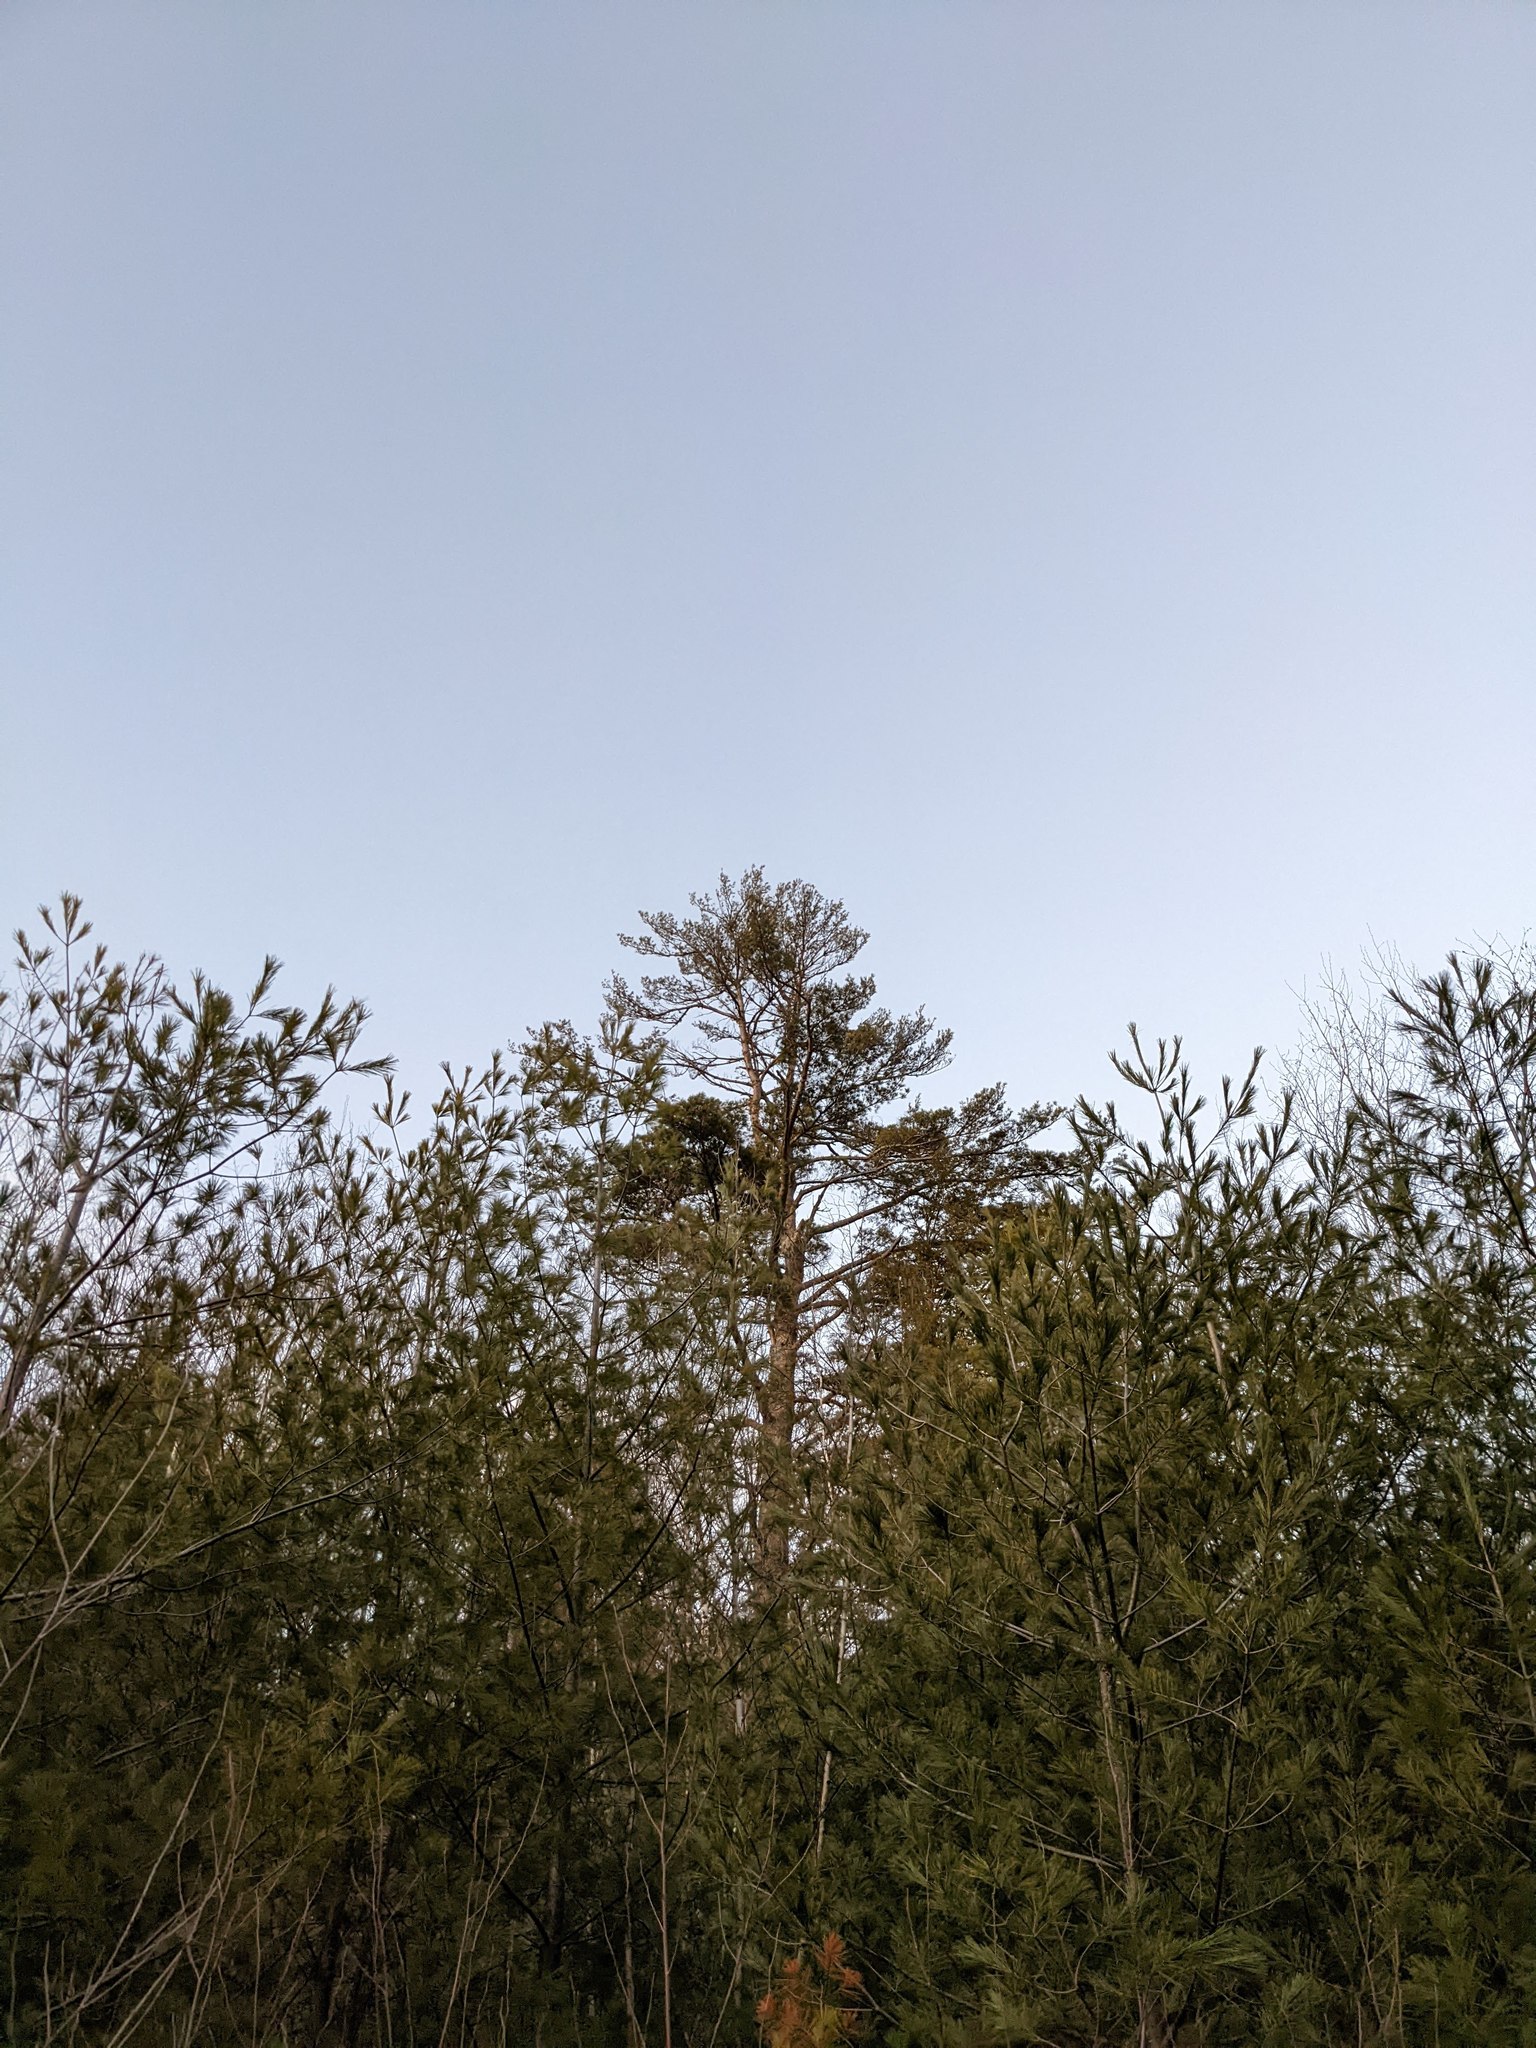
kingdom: Plantae
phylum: Tracheophyta
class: Pinopsida
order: Pinales
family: Pinaceae
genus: Pinus
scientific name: Pinus strobus
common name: Weymouth pine
